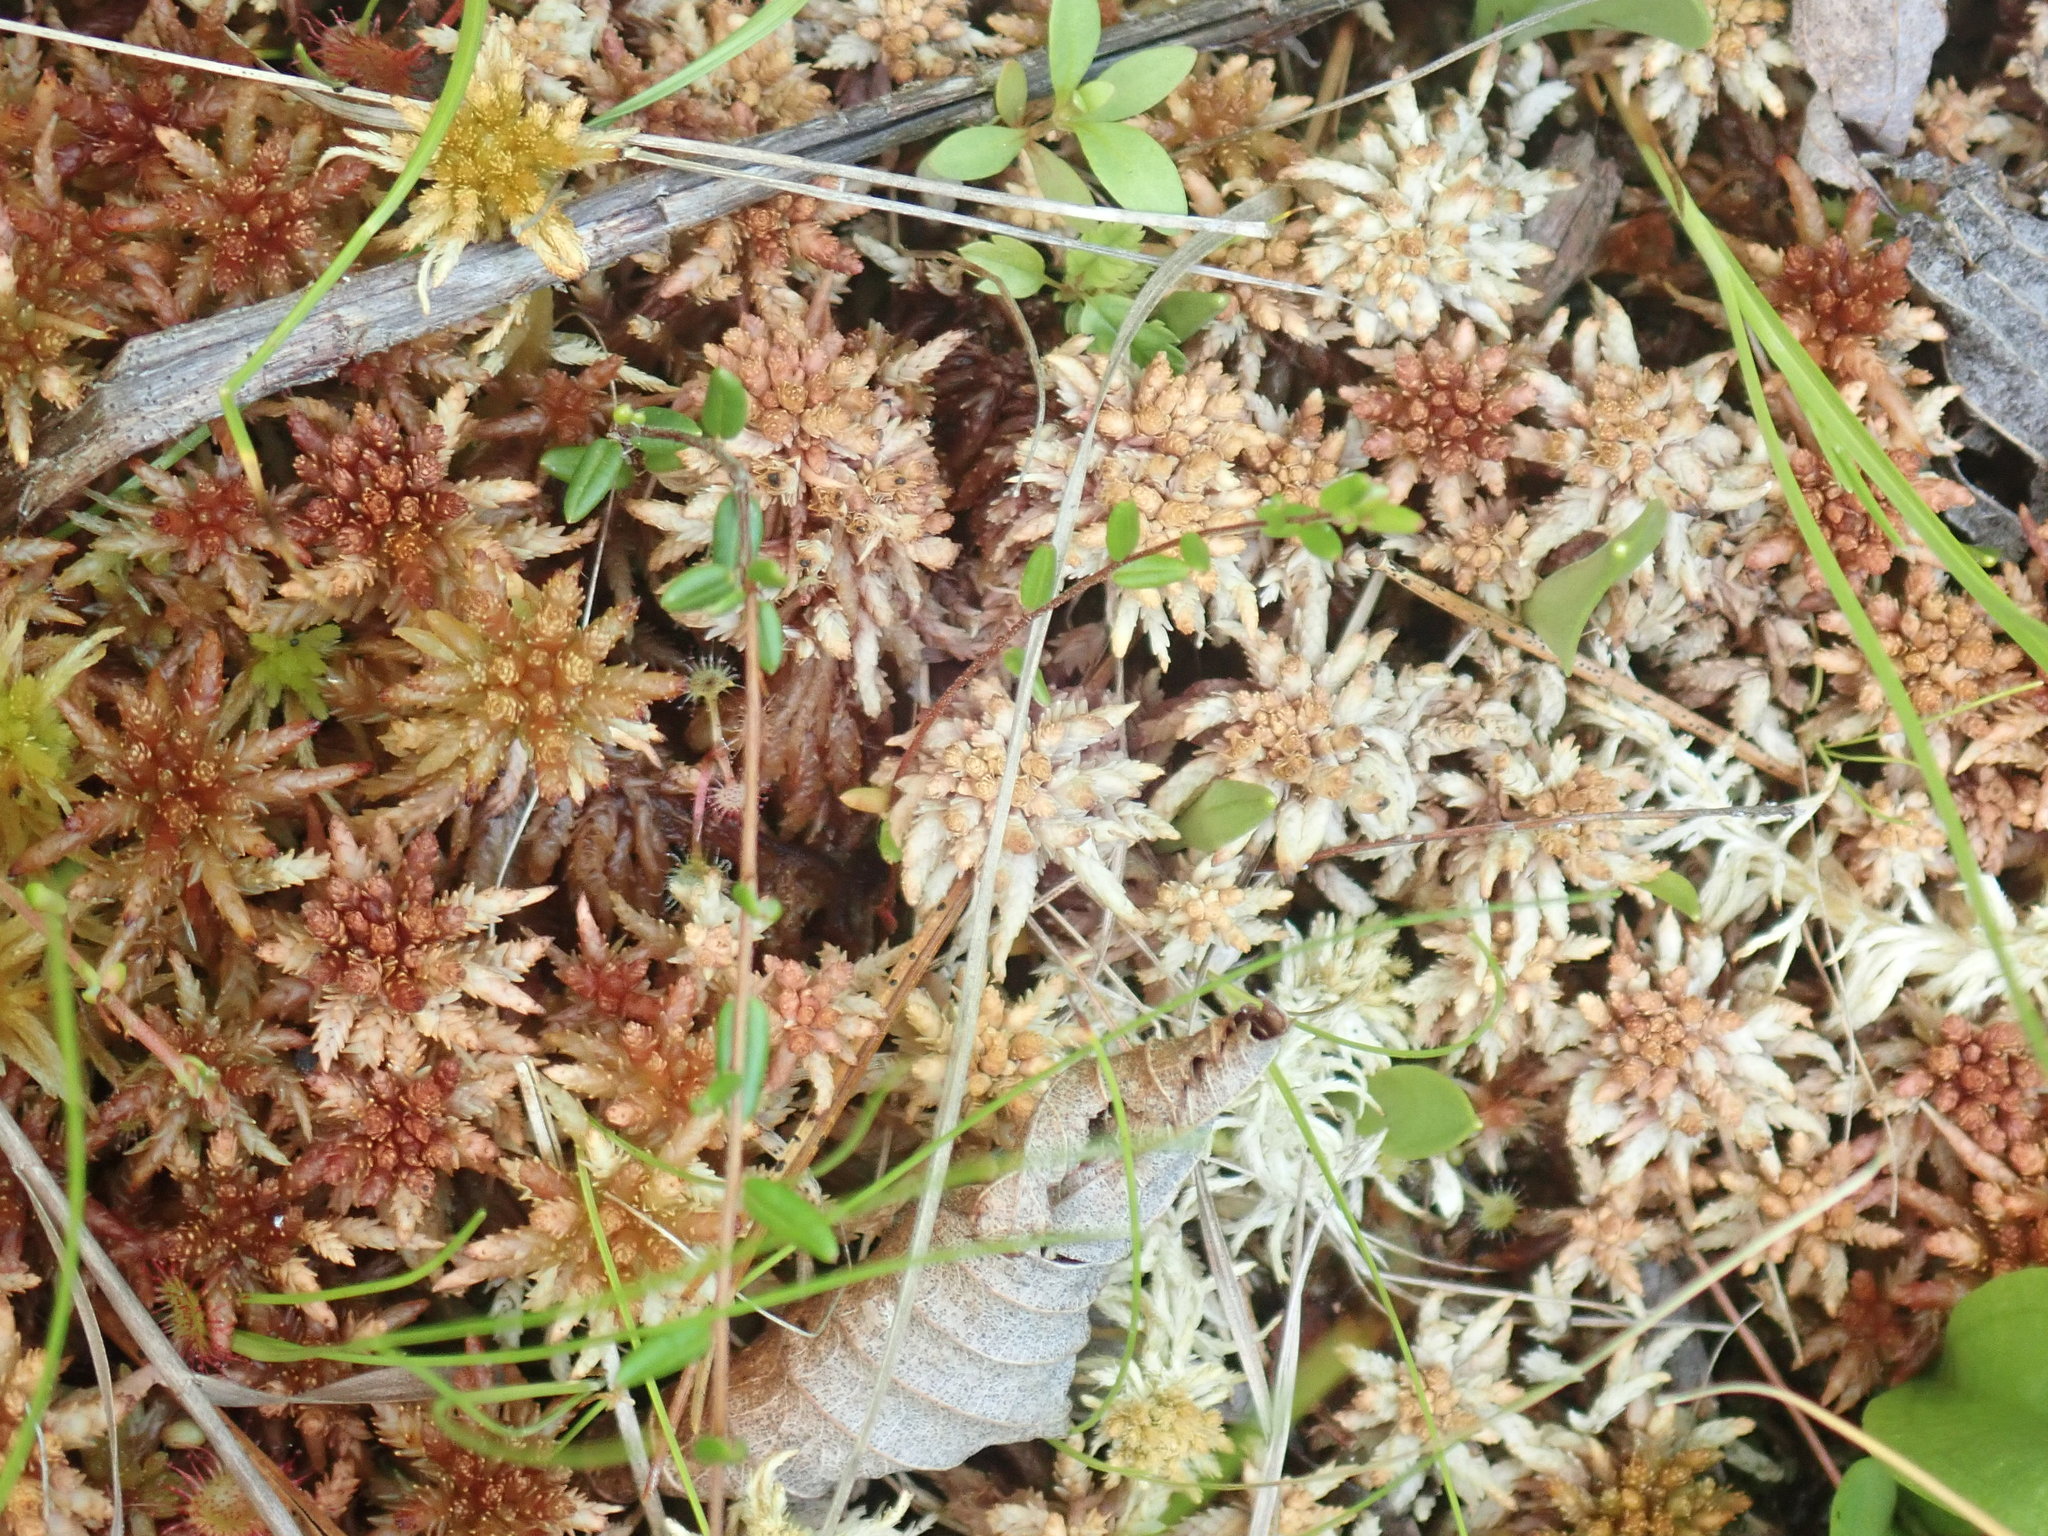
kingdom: Plantae
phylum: Bryophyta
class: Sphagnopsida
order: Sphagnales
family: Sphagnaceae
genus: Sphagnum
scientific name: Sphagnum
